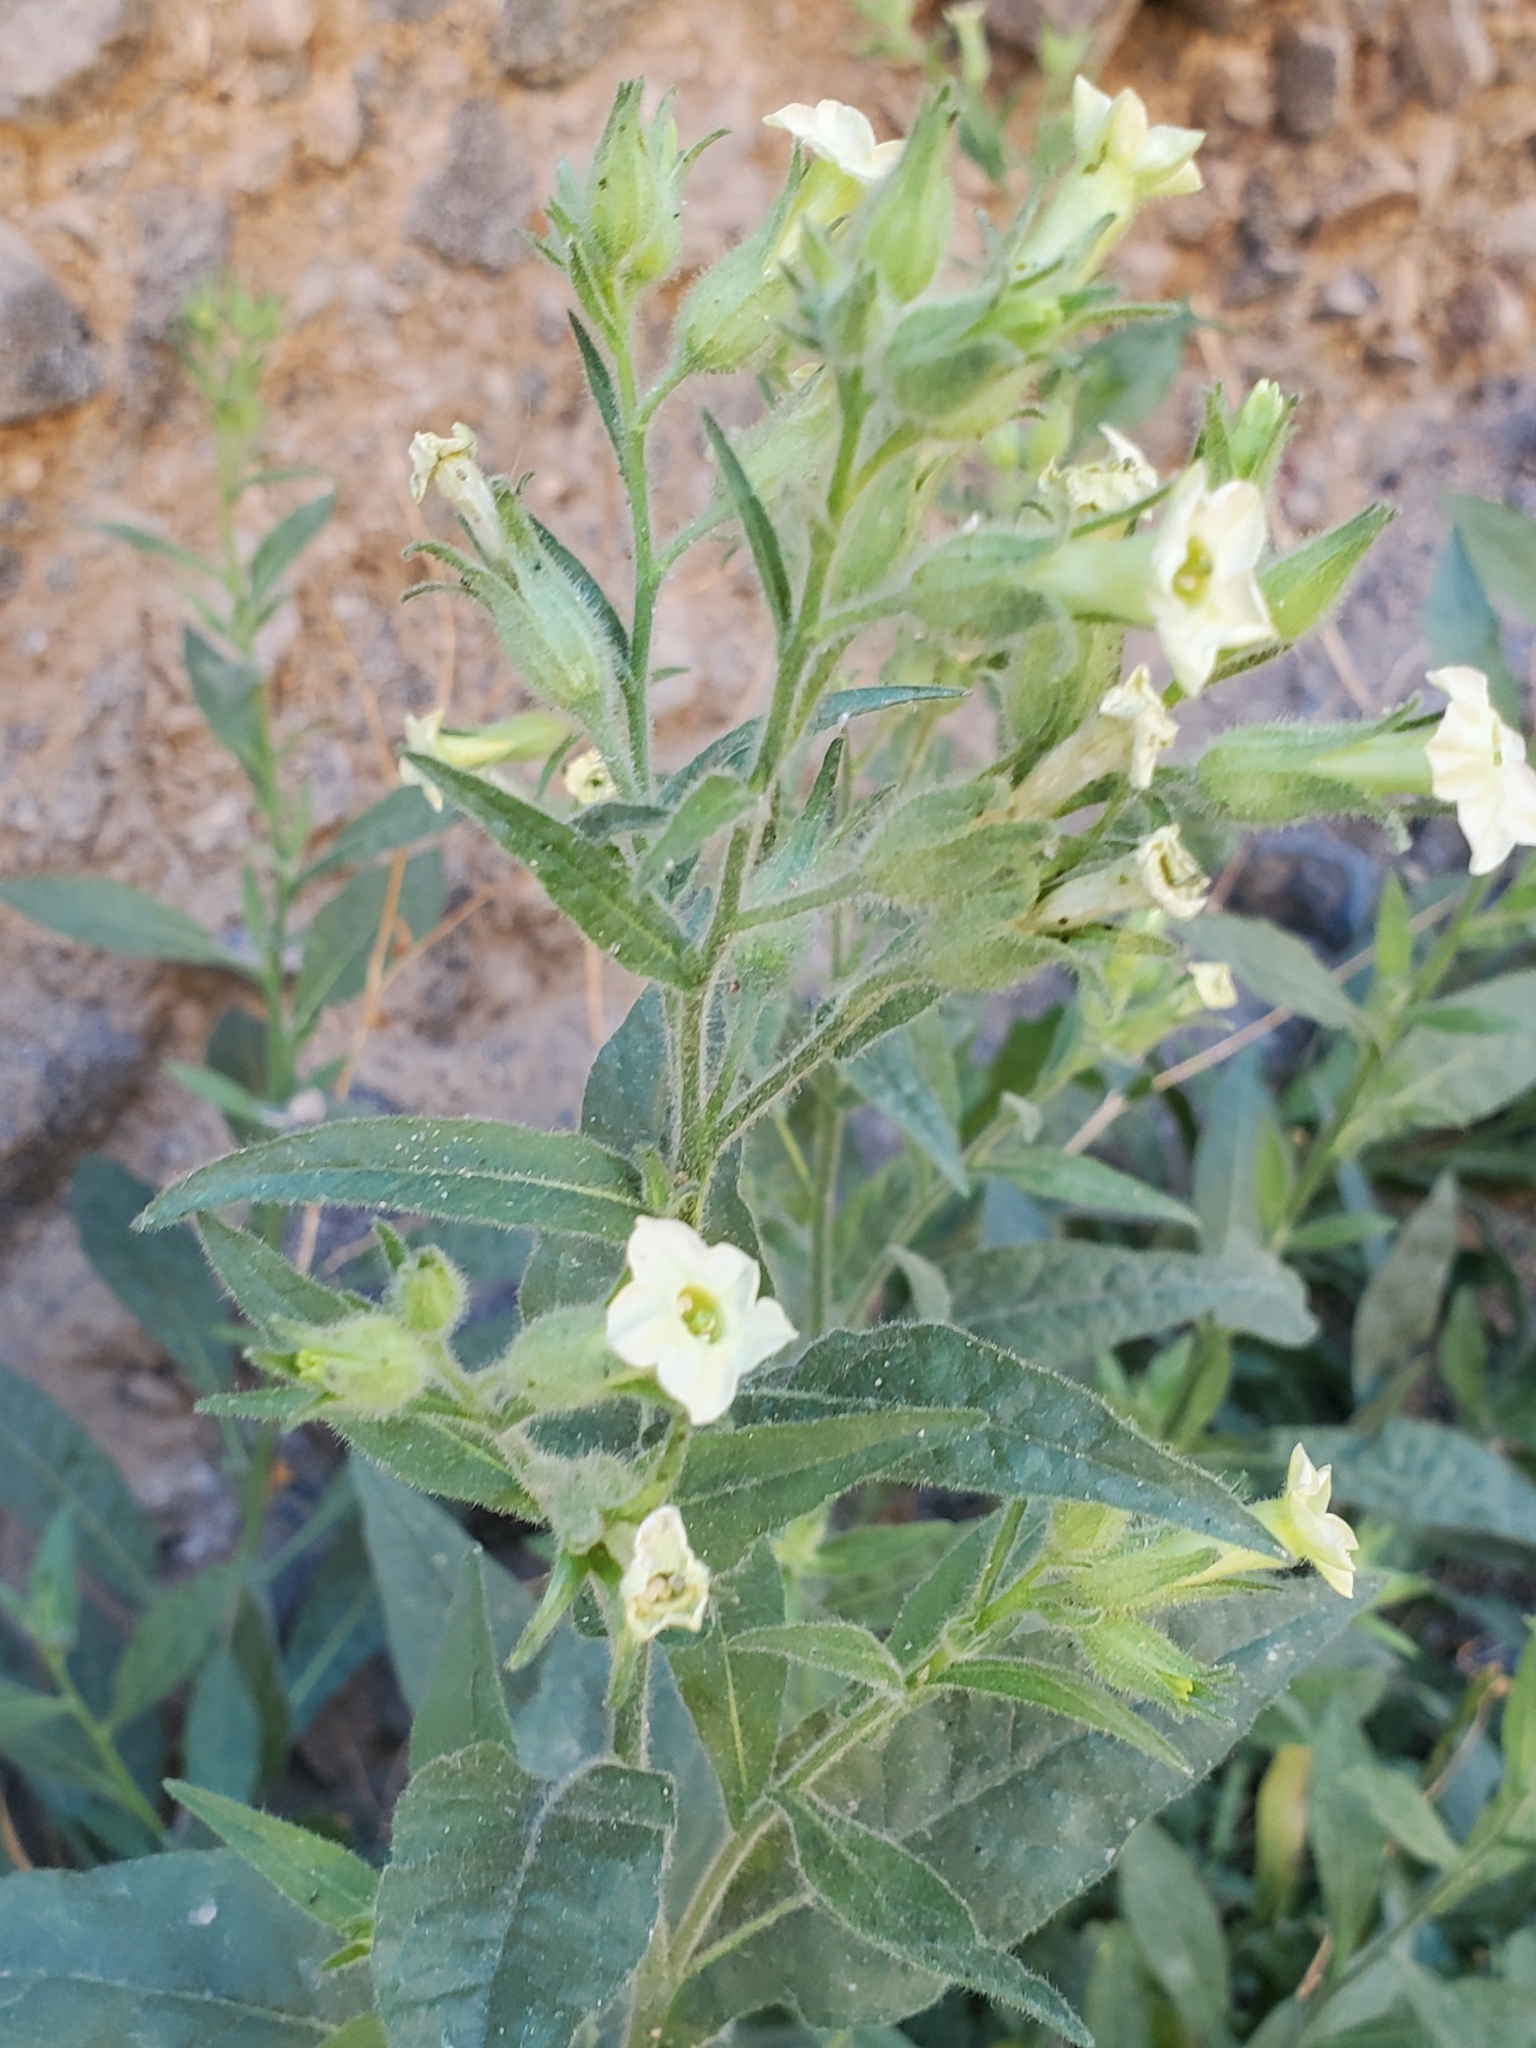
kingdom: Plantae
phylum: Tracheophyta
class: Magnoliopsida
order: Solanales
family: Solanaceae
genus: Nicotiana
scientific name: Nicotiana obtusifolia
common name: Desert tobacco
